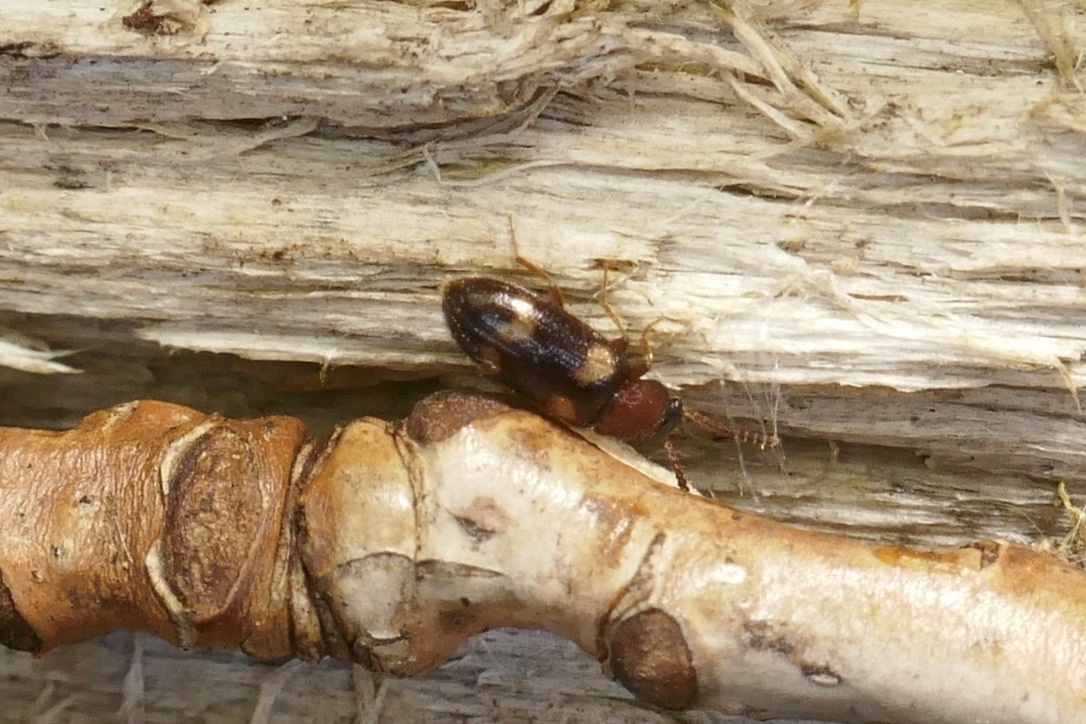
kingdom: Animalia
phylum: Arthropoda
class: Insecta
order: Coleoptera
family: Mycetophagidae
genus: Mycetophagus
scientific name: Mycetophagus fulvicollis
